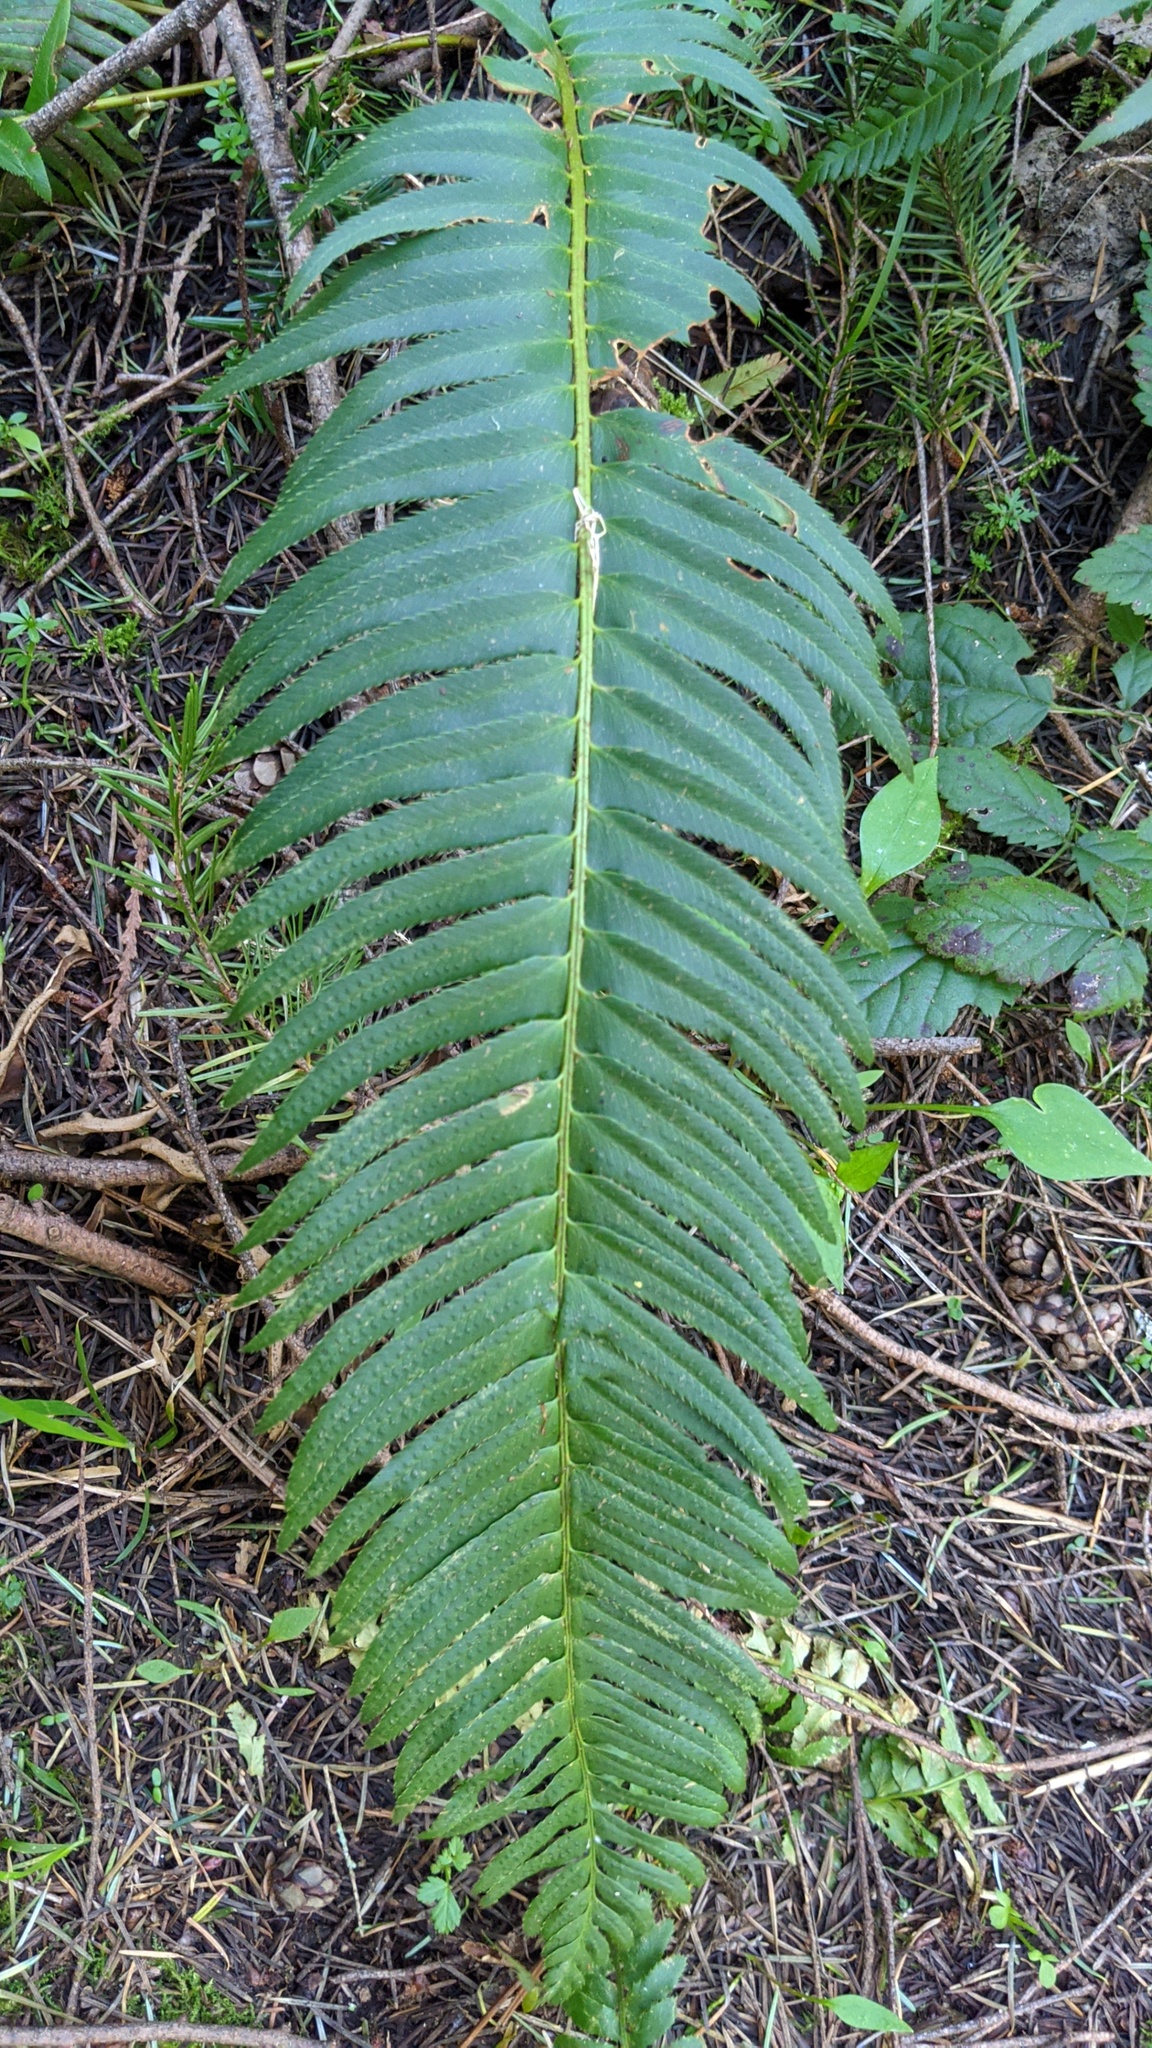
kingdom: Plantae
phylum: Tracheophyta
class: Polypodiopsida
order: Polypodiales
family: Dryopteridaceae
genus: Polystichum
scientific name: Polystichum munitum
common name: Western sword-fern
